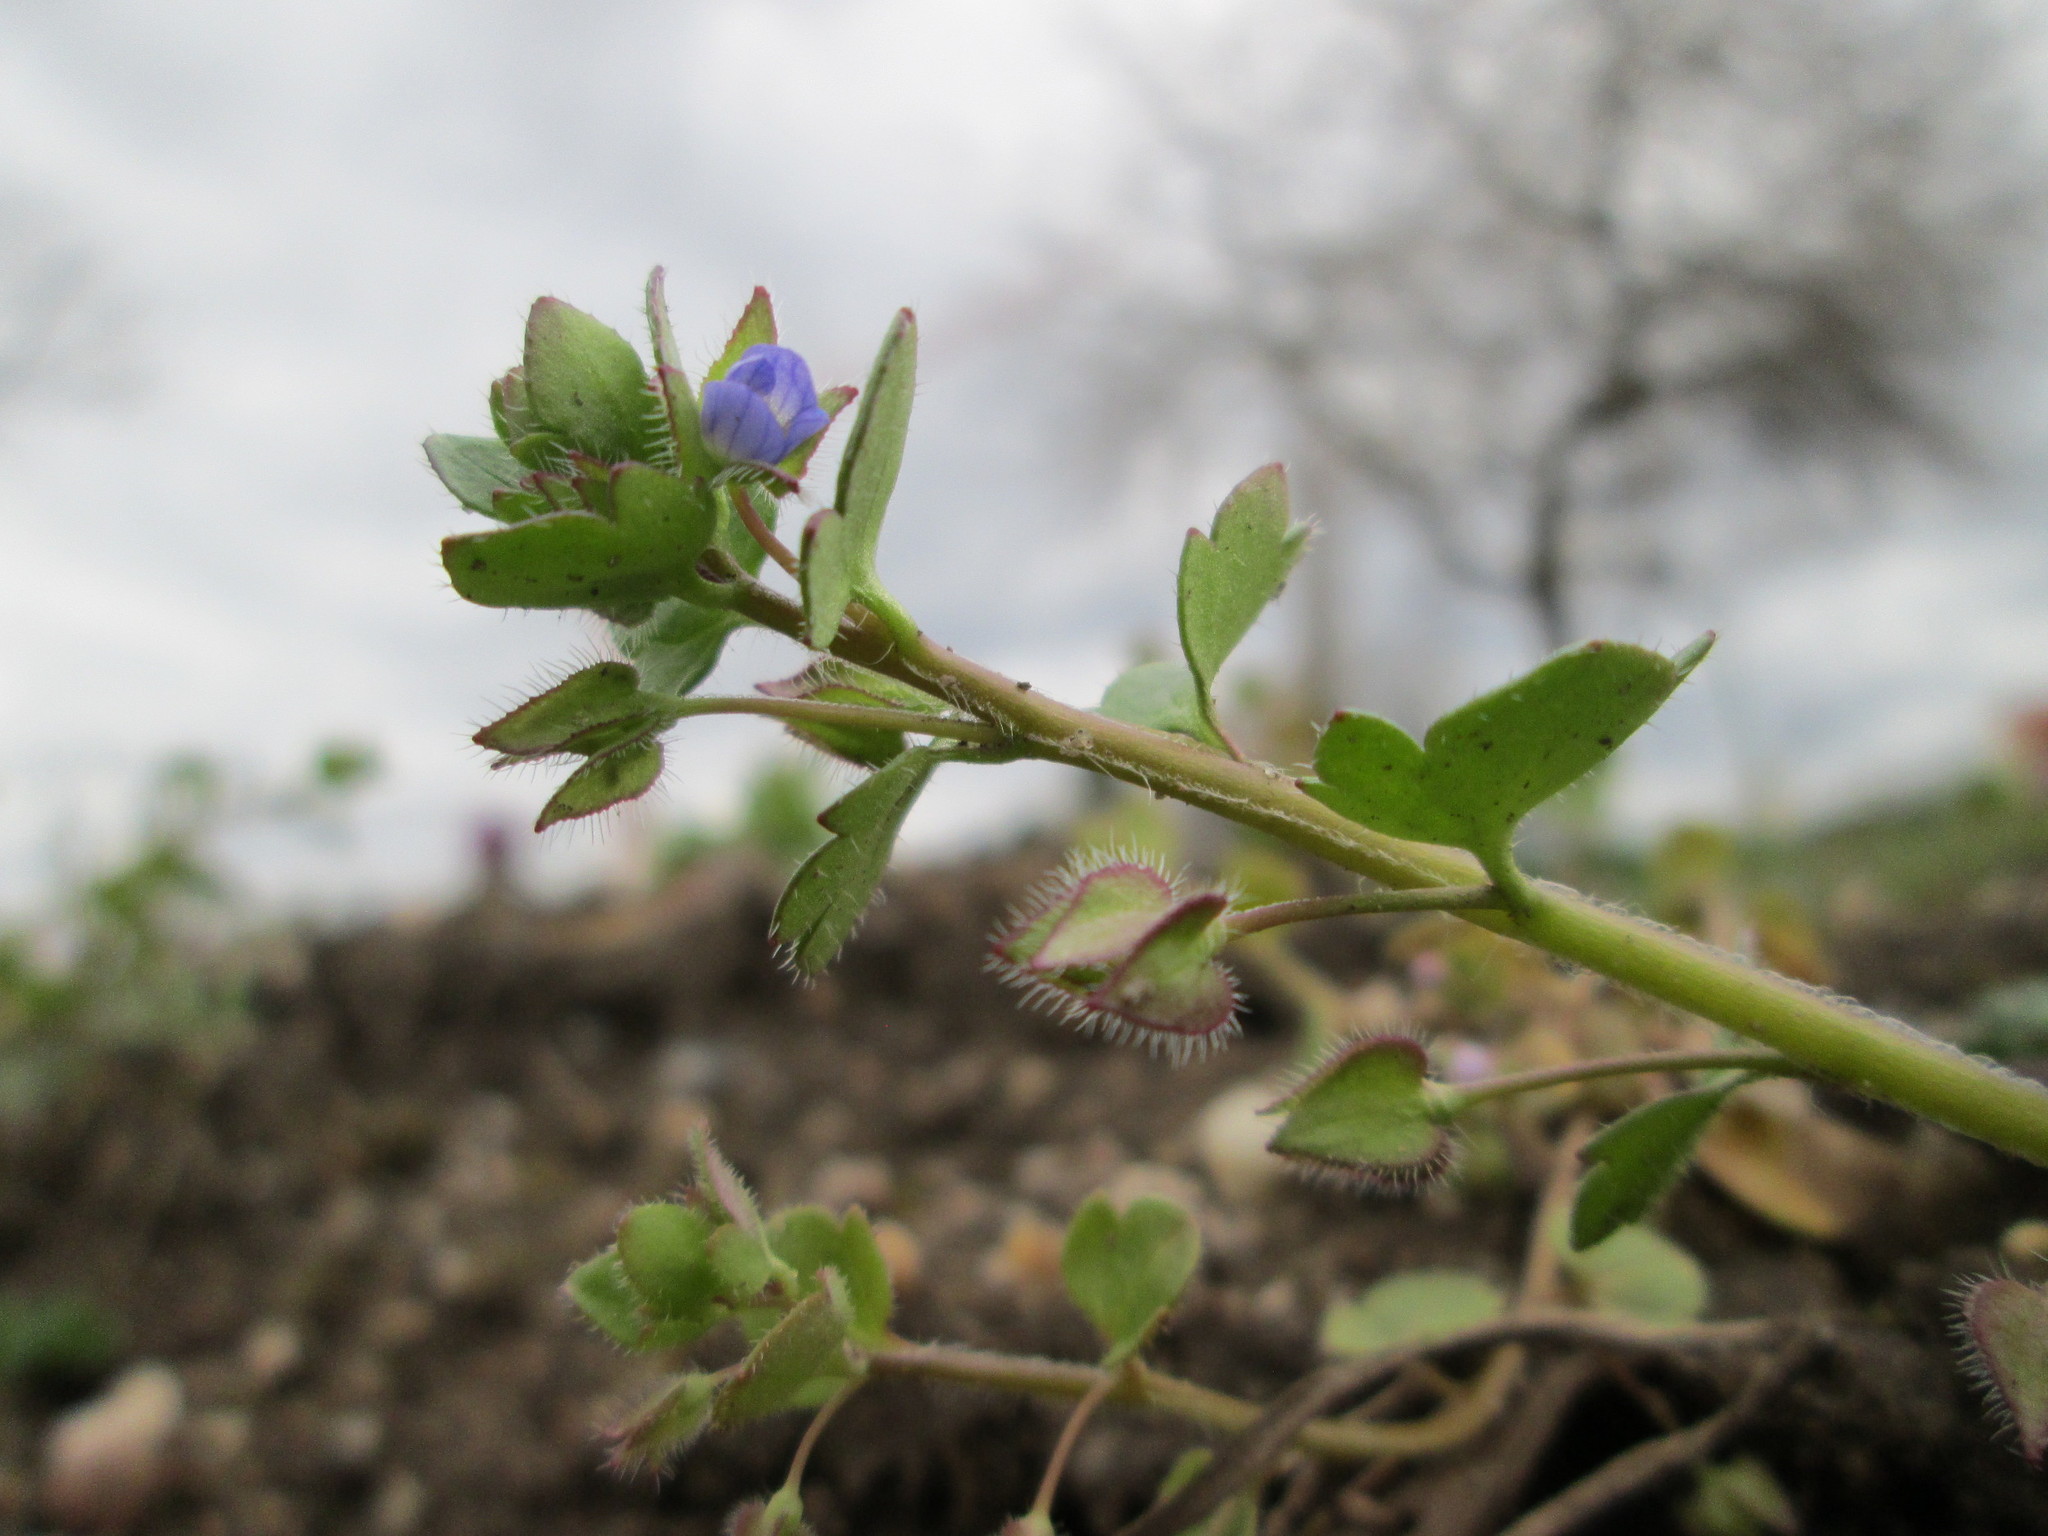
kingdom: Plantae
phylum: Tracheophyta
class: Magnoliopsida
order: Lamiales
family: Plantaginaceae
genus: Veronica
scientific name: Veronica hederifolia
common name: Ivy-leaved speedwell
